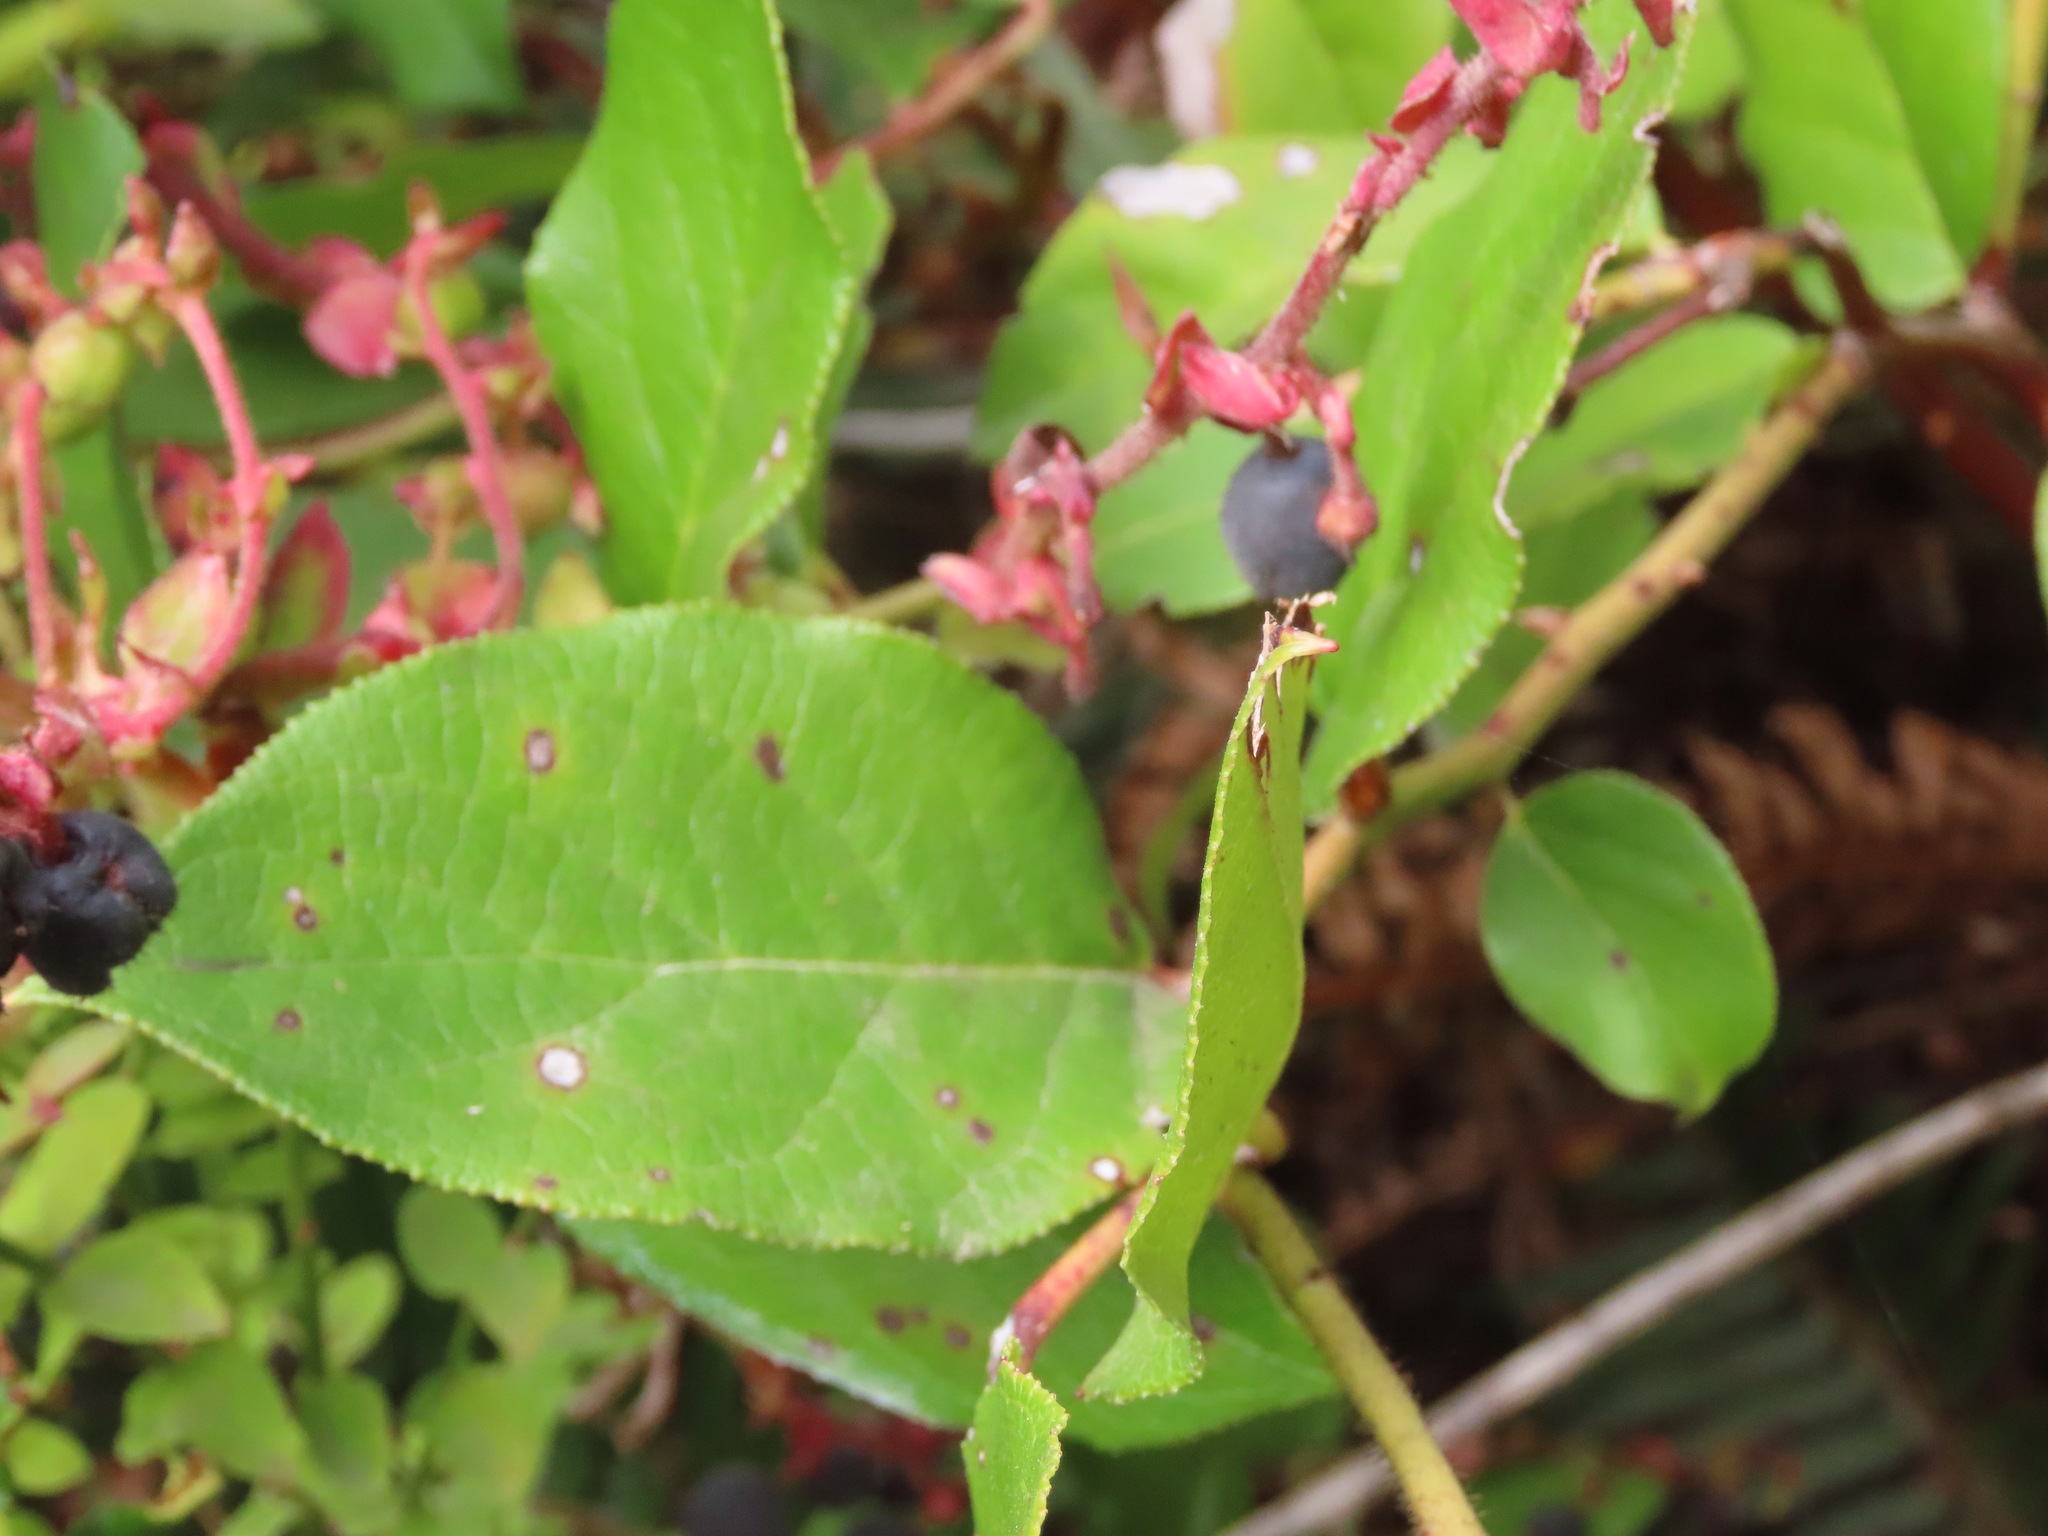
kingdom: Plantae
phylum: Tracheophyta
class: Magnoliopsida
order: Ericales
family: Ericaceae
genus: Gaultheria
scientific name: Gaultheria shallon
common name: Shallon
